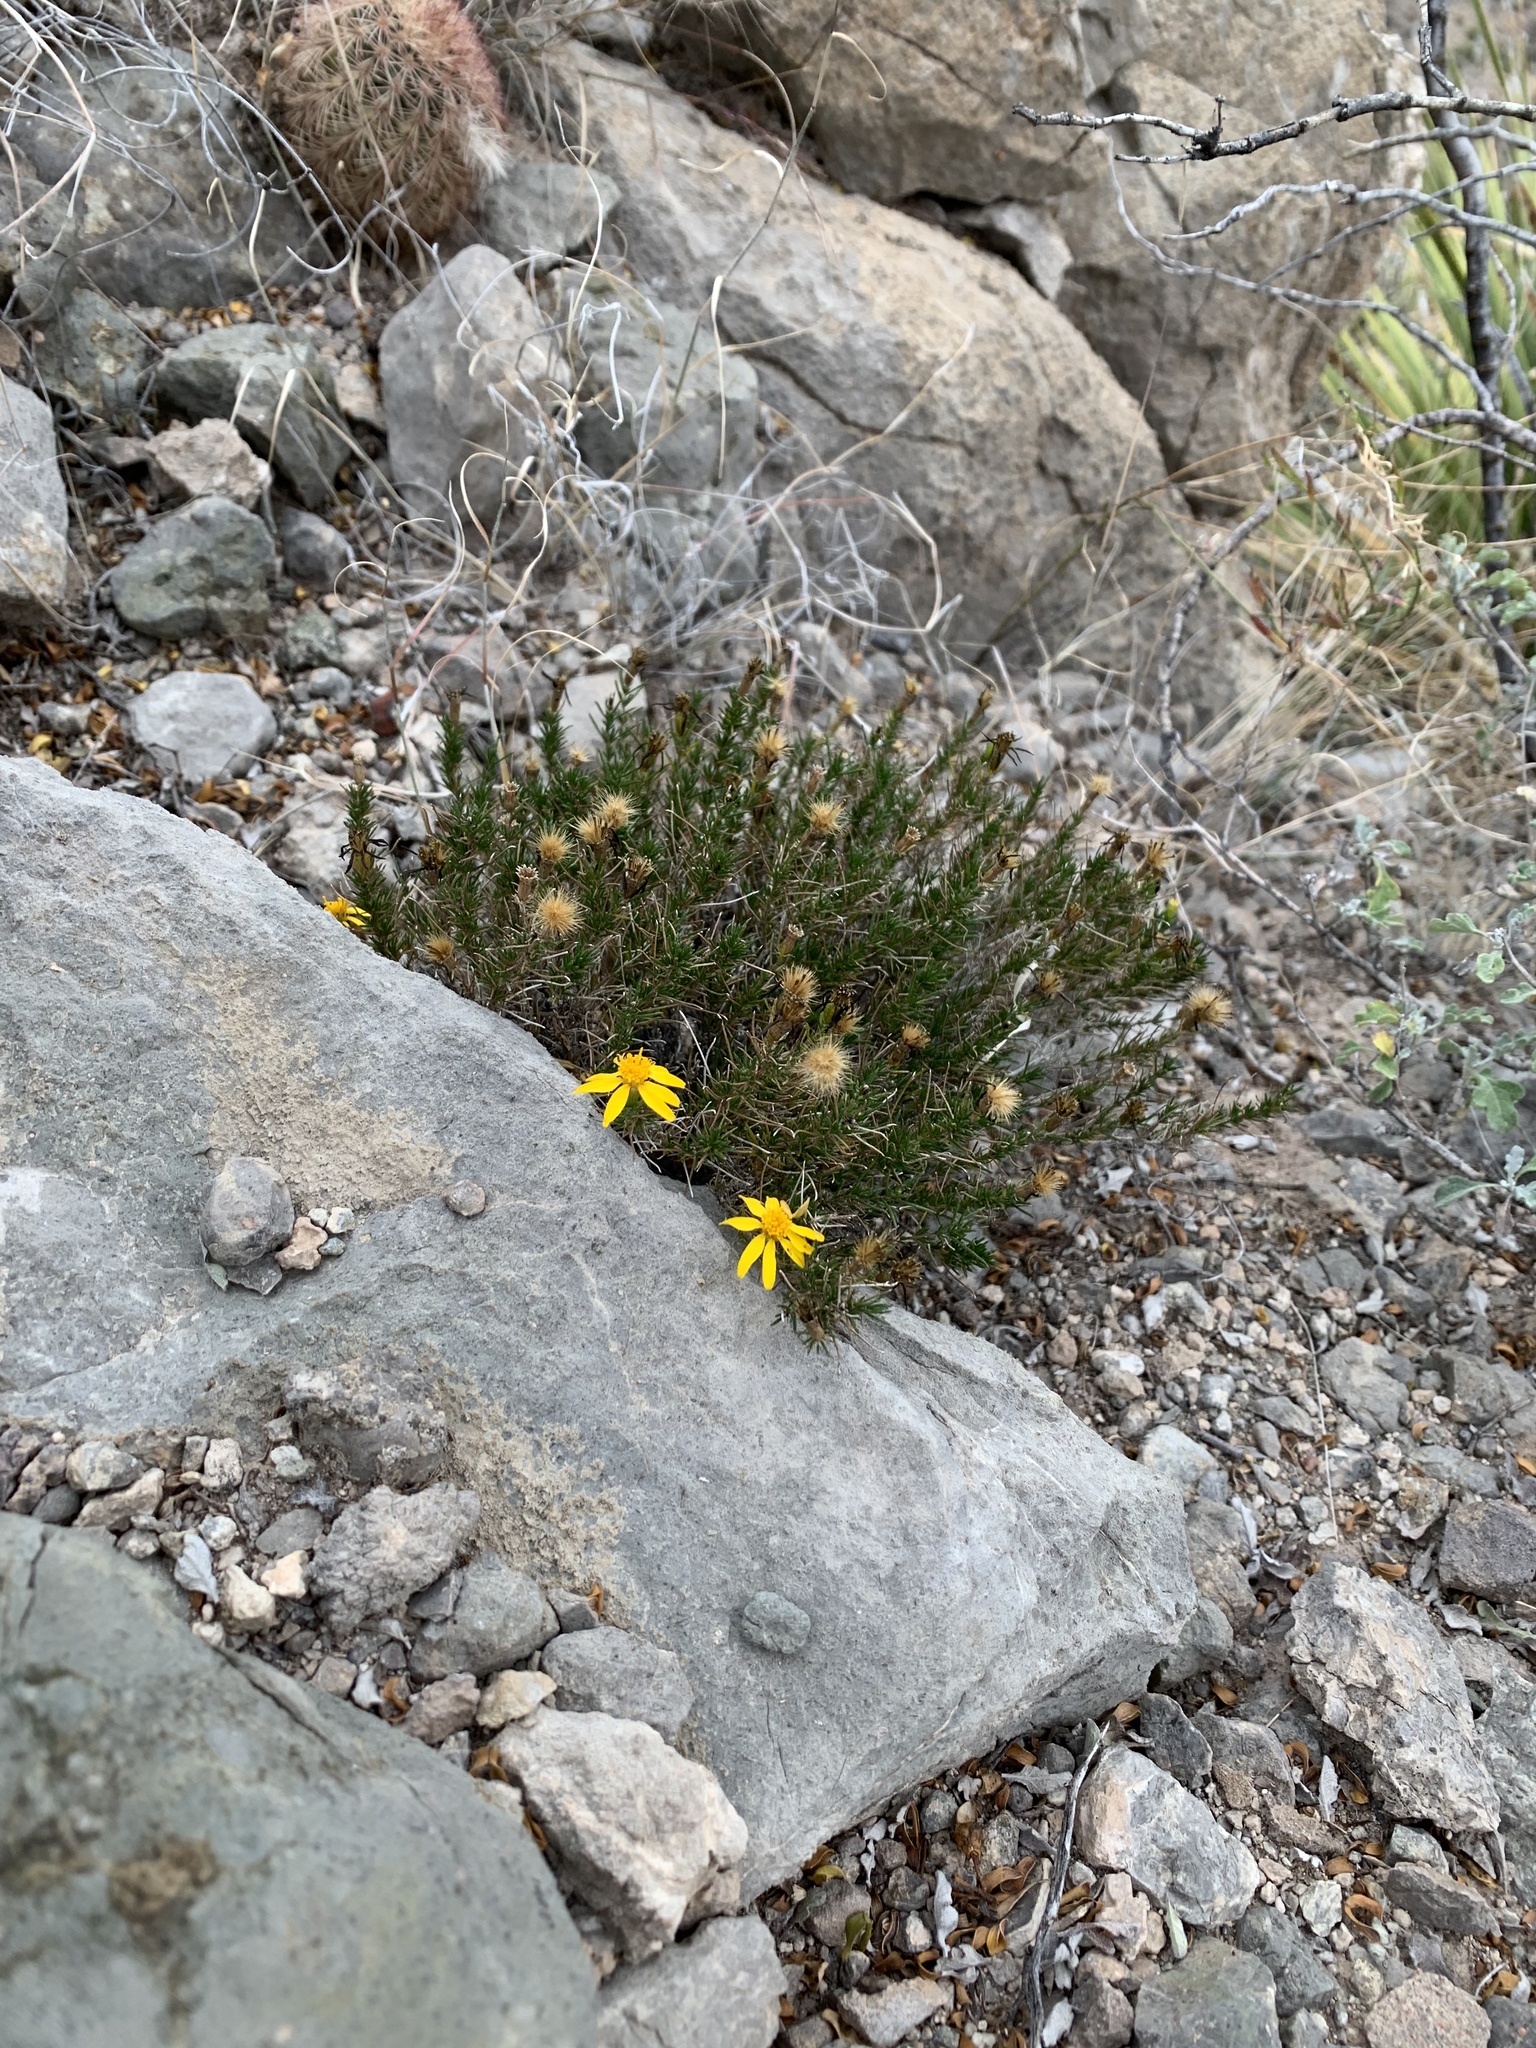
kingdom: Plantae
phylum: Tracheophyta
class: Magnoliopsida
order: Asterales
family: Asteraceae
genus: Thymophylla
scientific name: Thymophylla acerosa
